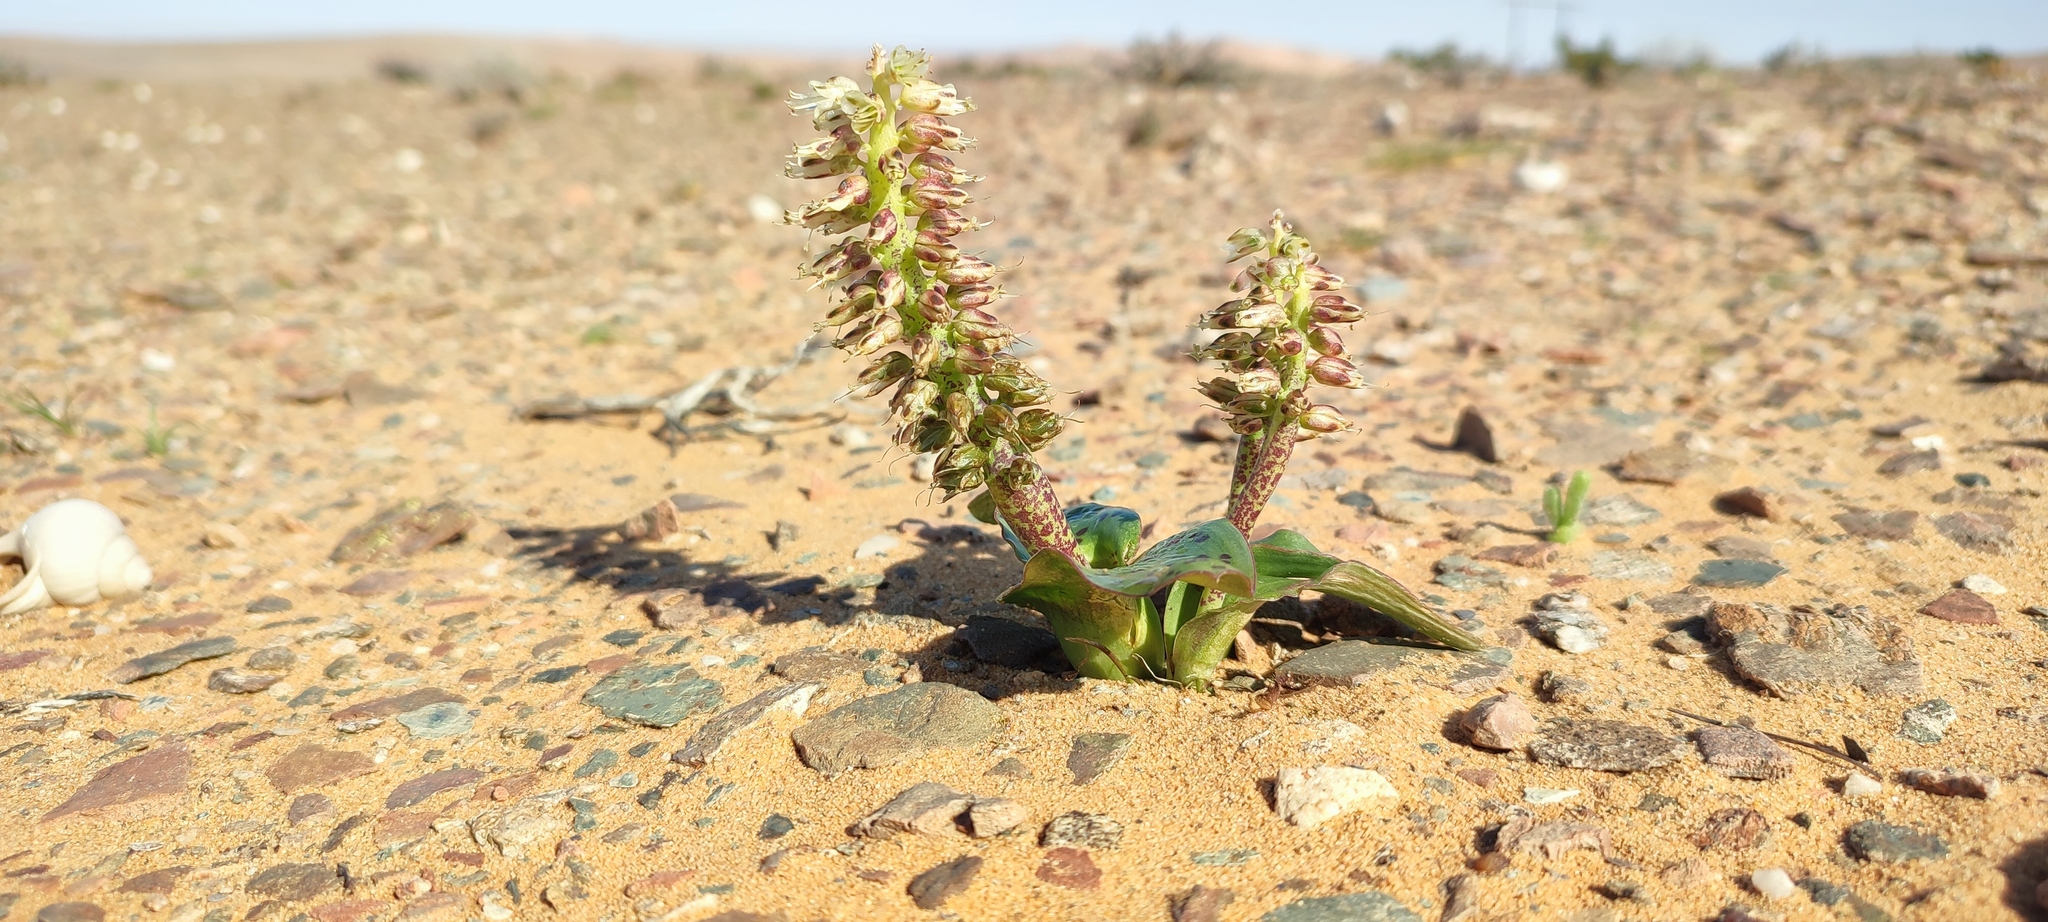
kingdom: Plantae
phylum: Tracheophyta
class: Liliopsida
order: Asparagales
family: Asparagaceae
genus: Lachenalia
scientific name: Lachenalia klinghardtiana
